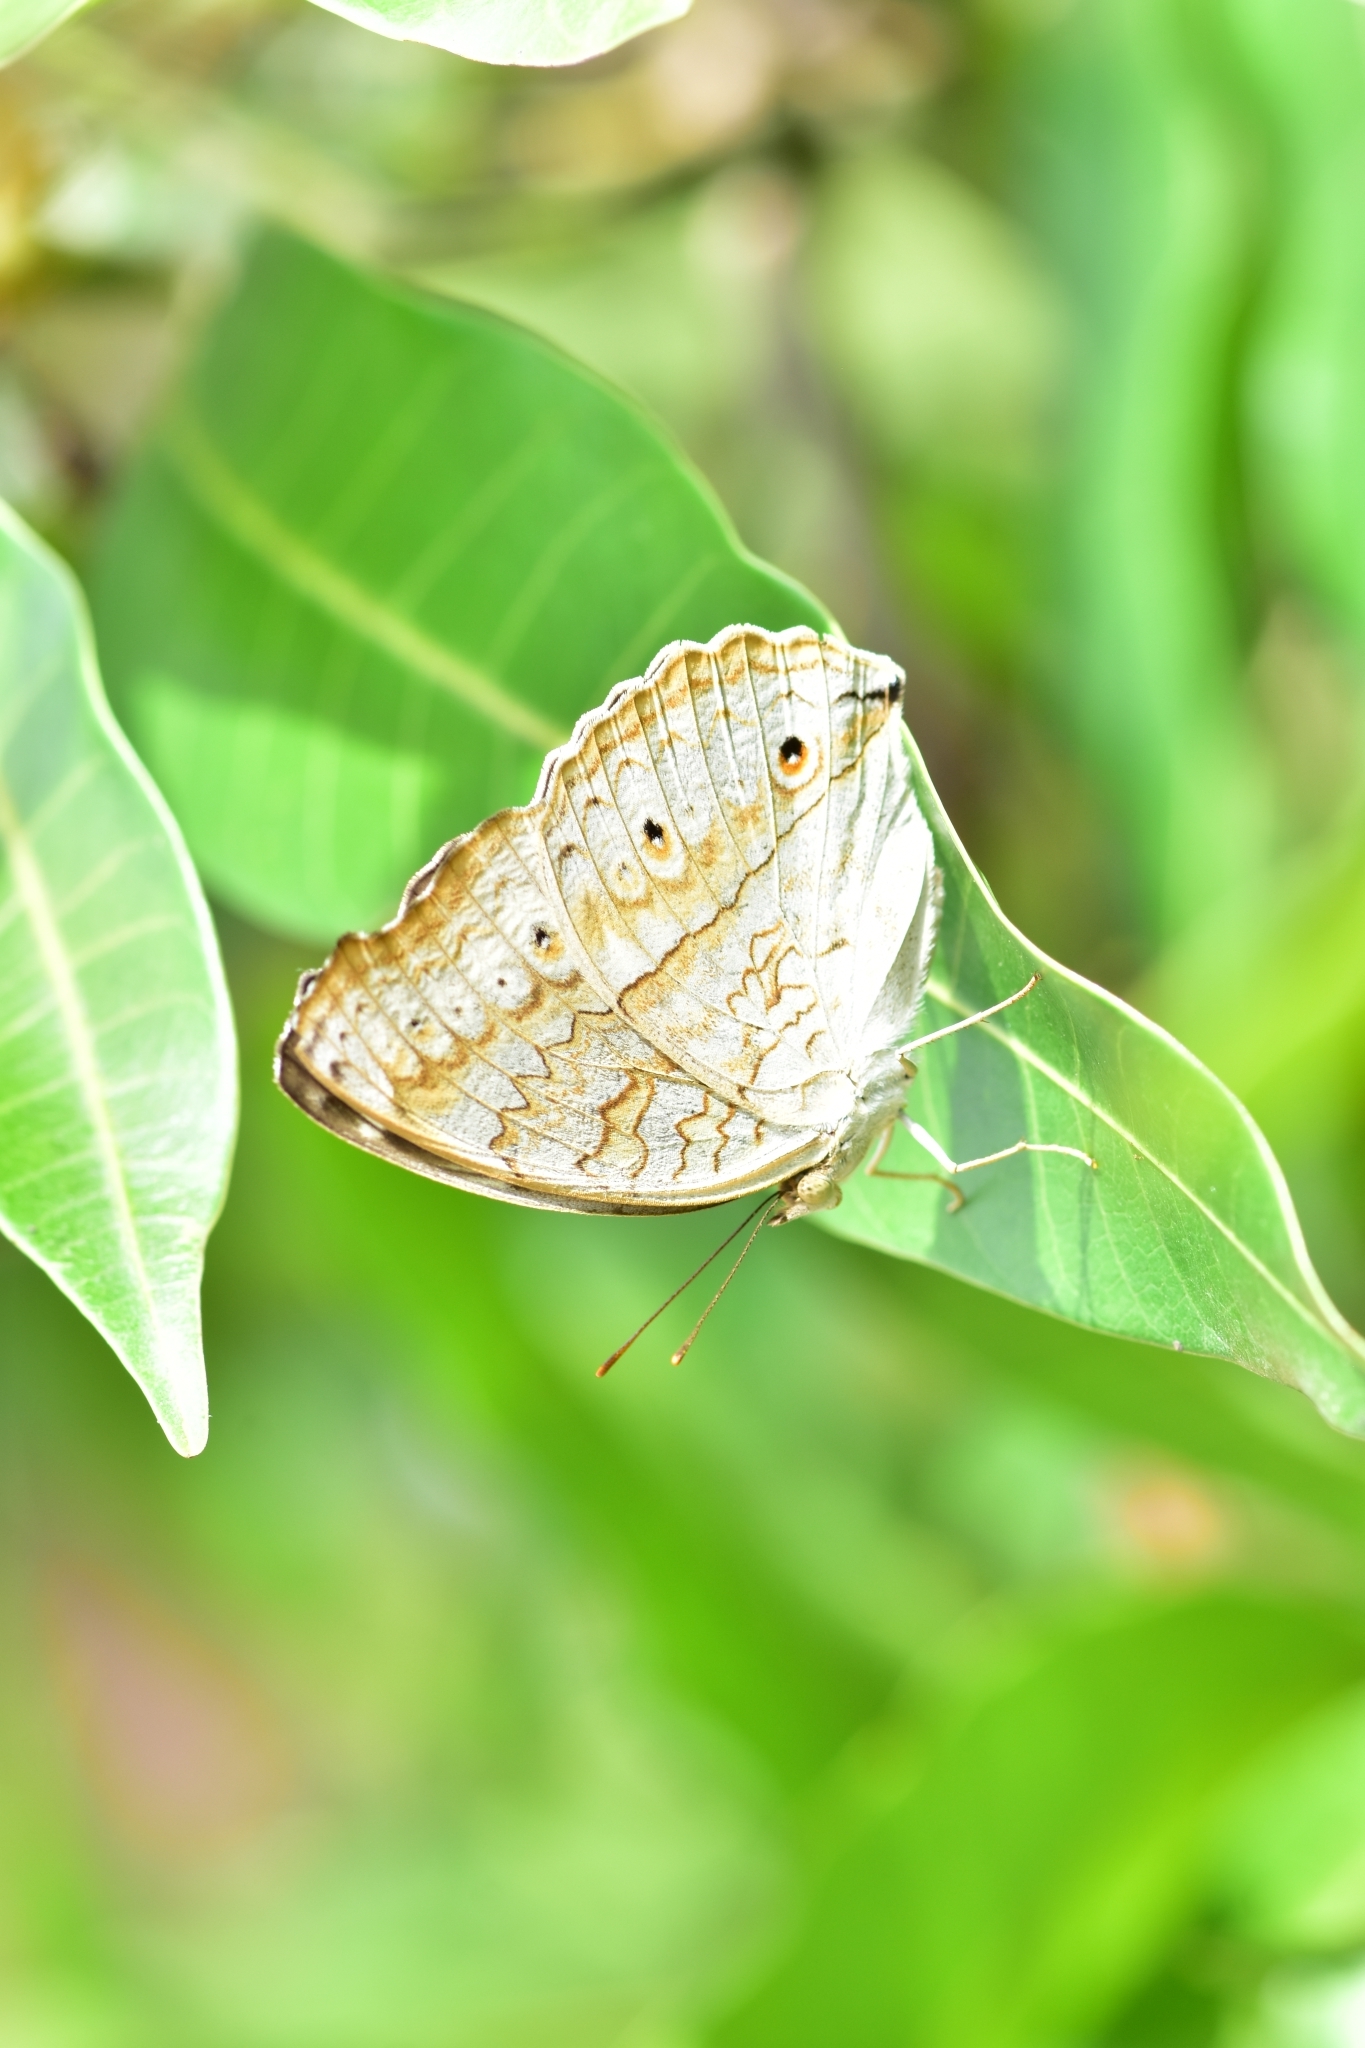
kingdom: Animalia
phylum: Arthropoda
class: Insecta
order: Lepidoptera
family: Nymphalidae
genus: Junonia
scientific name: Junonia atlites
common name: Grey pansy
